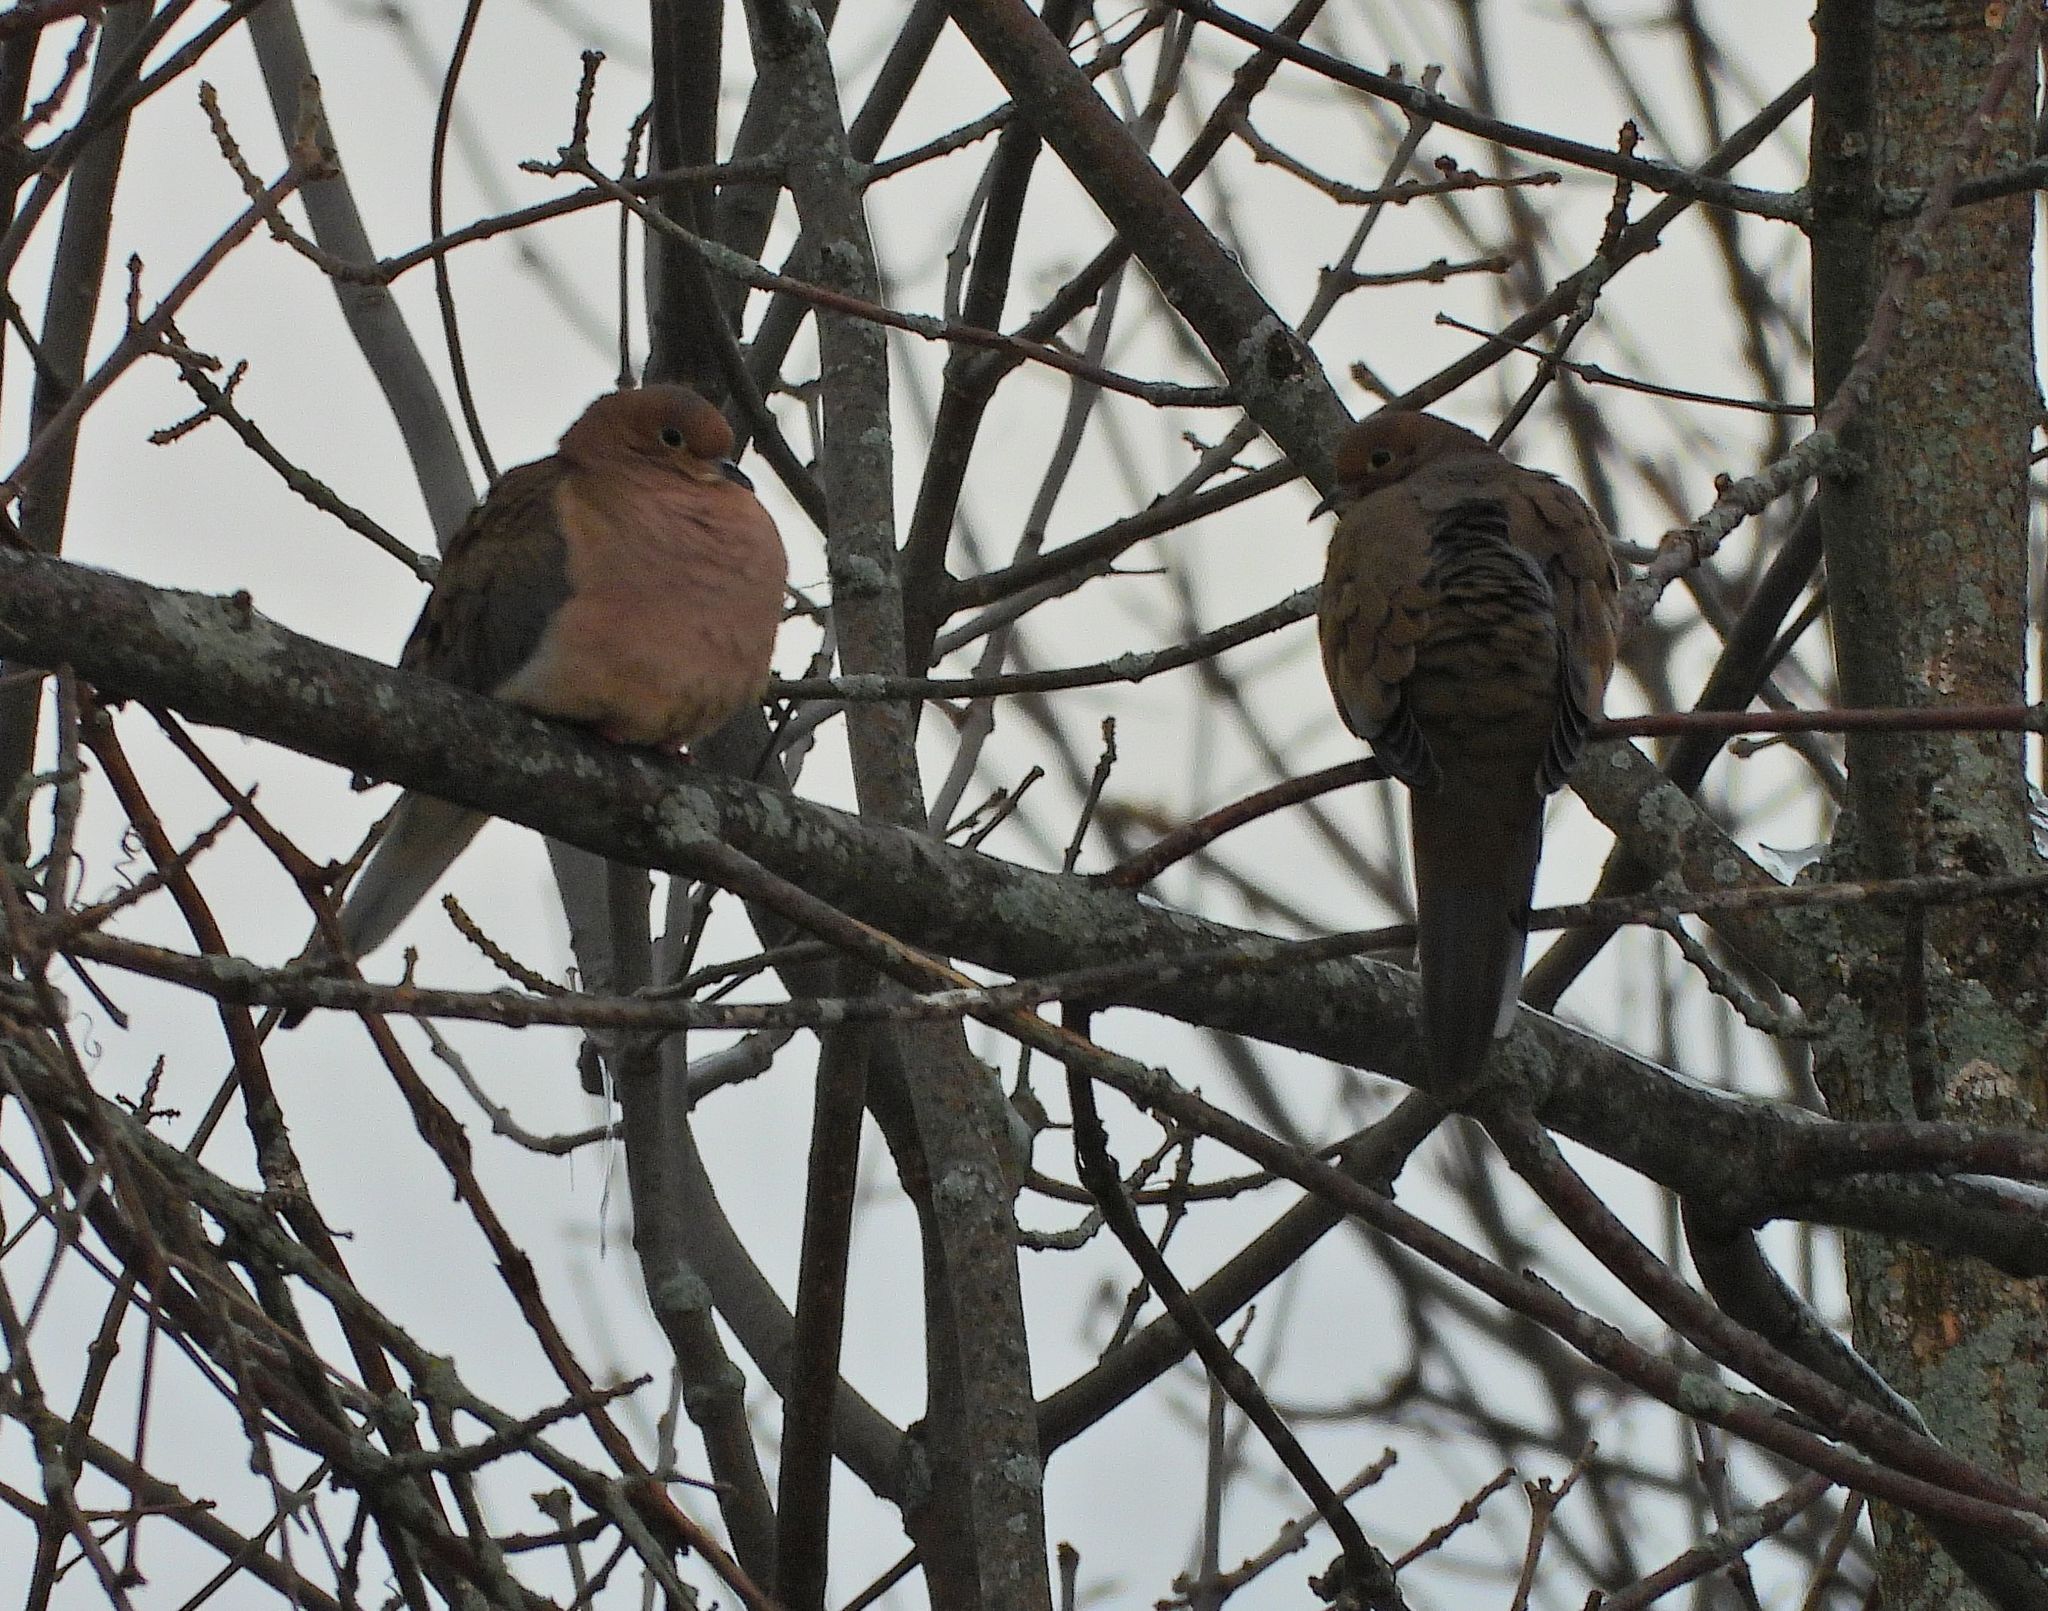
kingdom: Animalia
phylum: Chordata
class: Aves
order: Columbiformes
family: Columbidae
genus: Zenaida
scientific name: Zenaida macroura
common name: Mourning dove
